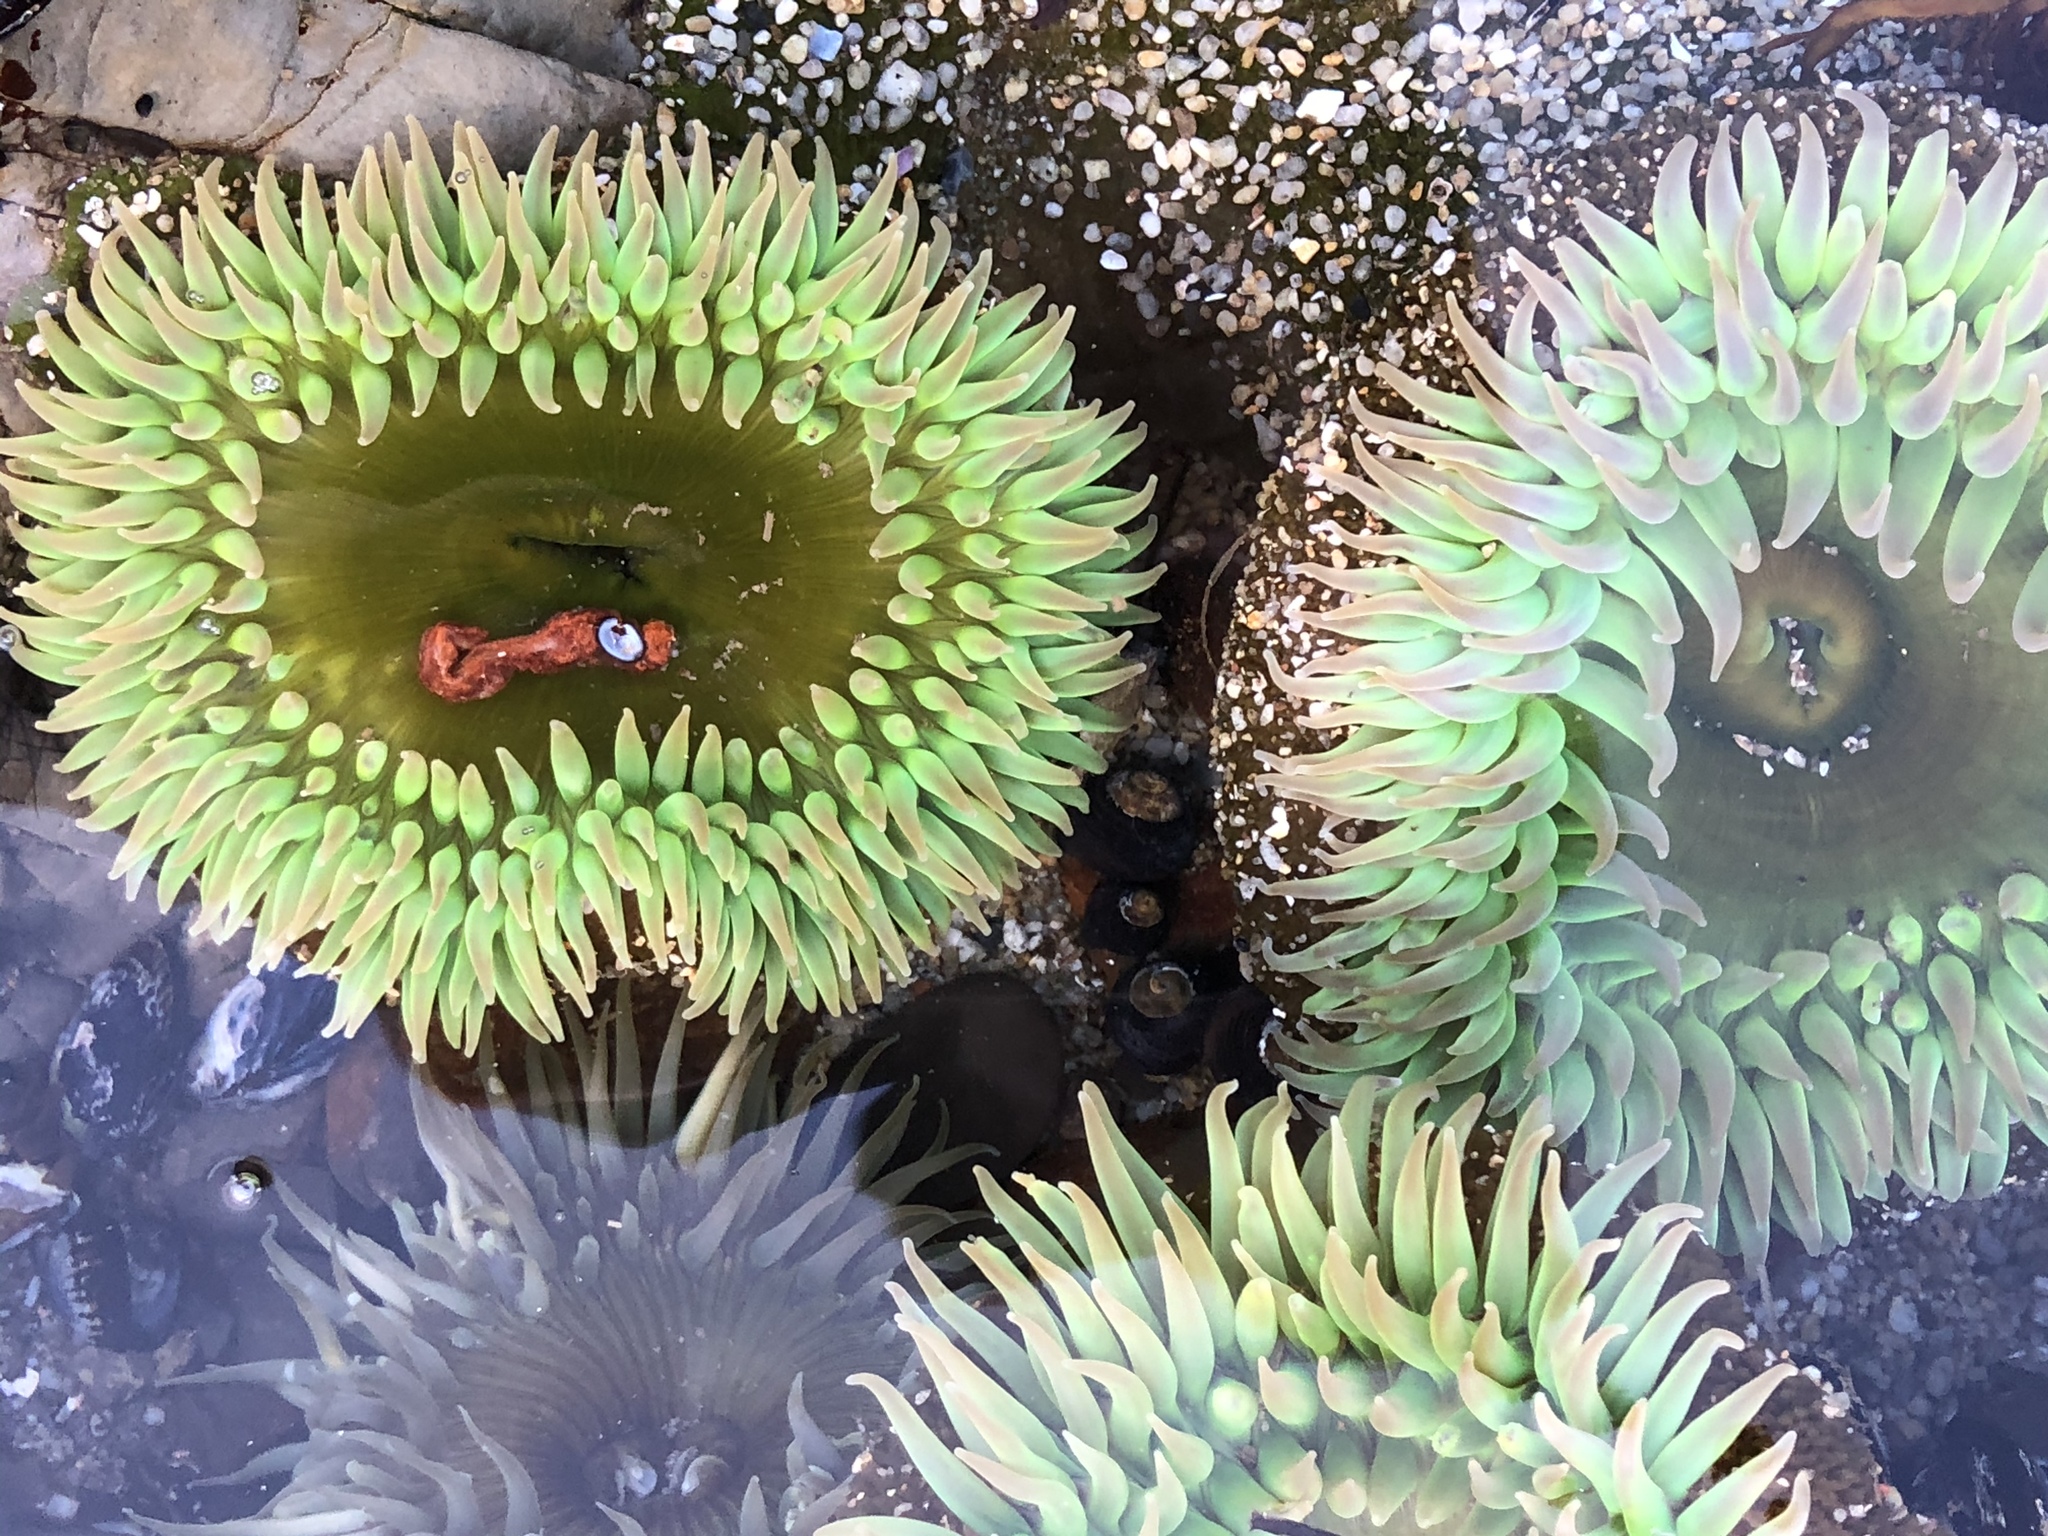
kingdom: Animalia
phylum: Cnidaria
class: Anthozoa
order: Actiniaria
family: Actiniidae
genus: Anthopleura
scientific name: Anthopleura xanthogrammica
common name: Giant green anemone
